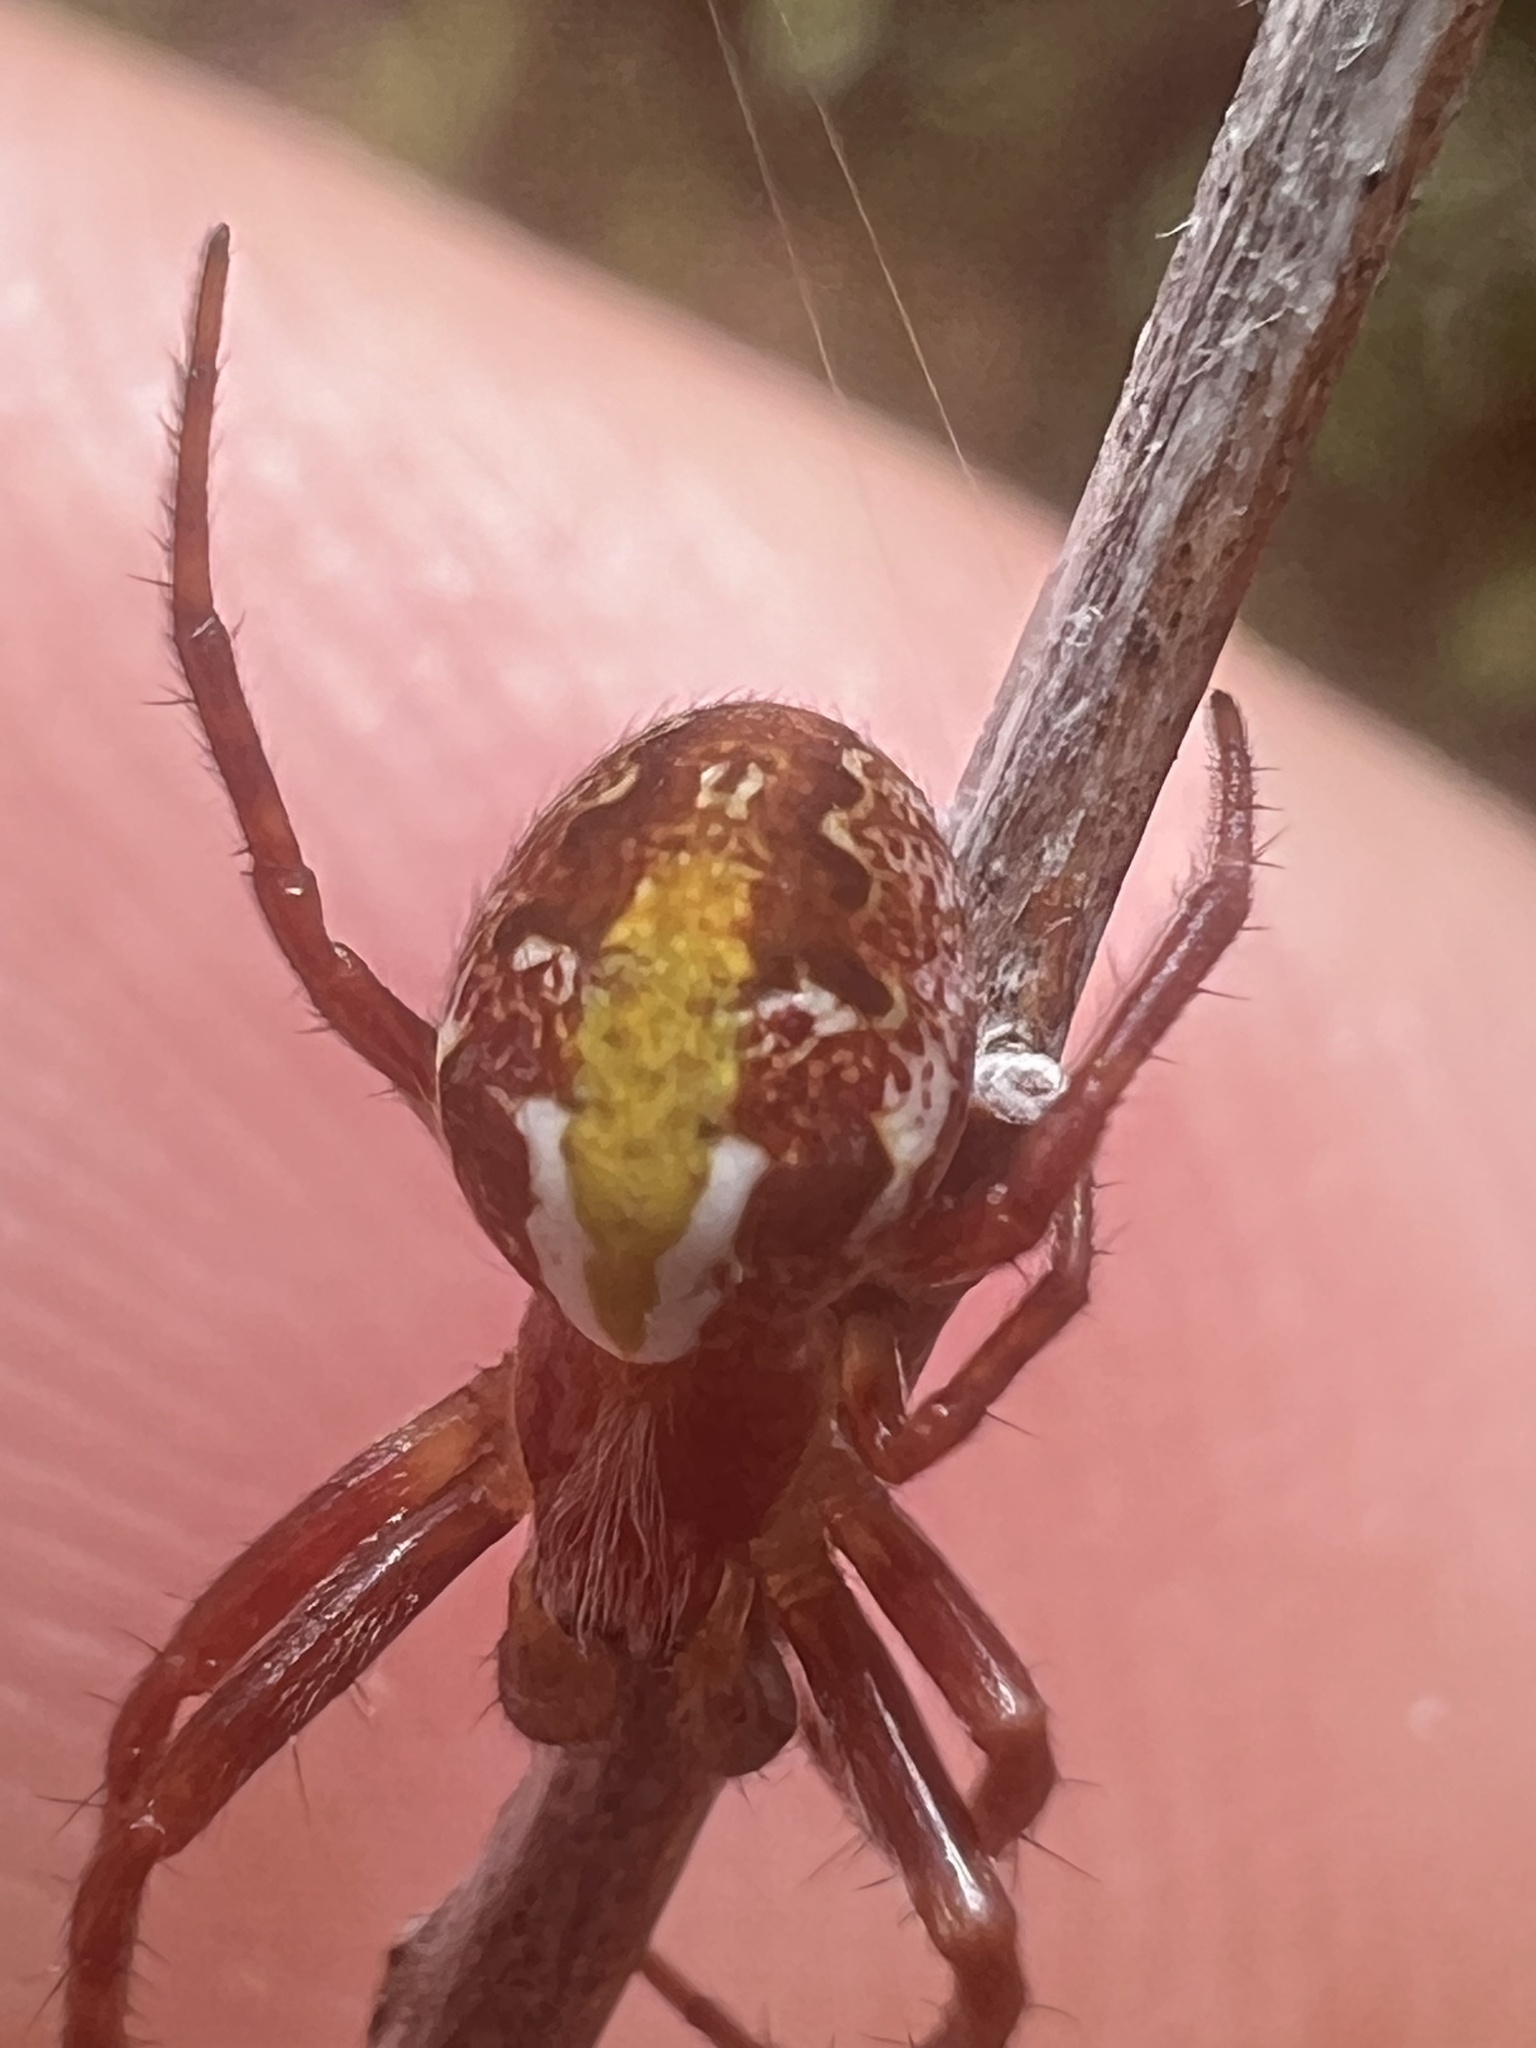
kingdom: Animalia
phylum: Arthropoda
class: Arachnida
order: Araneae
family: Araneidae
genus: Novaranea
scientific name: Novaranea queribunda
